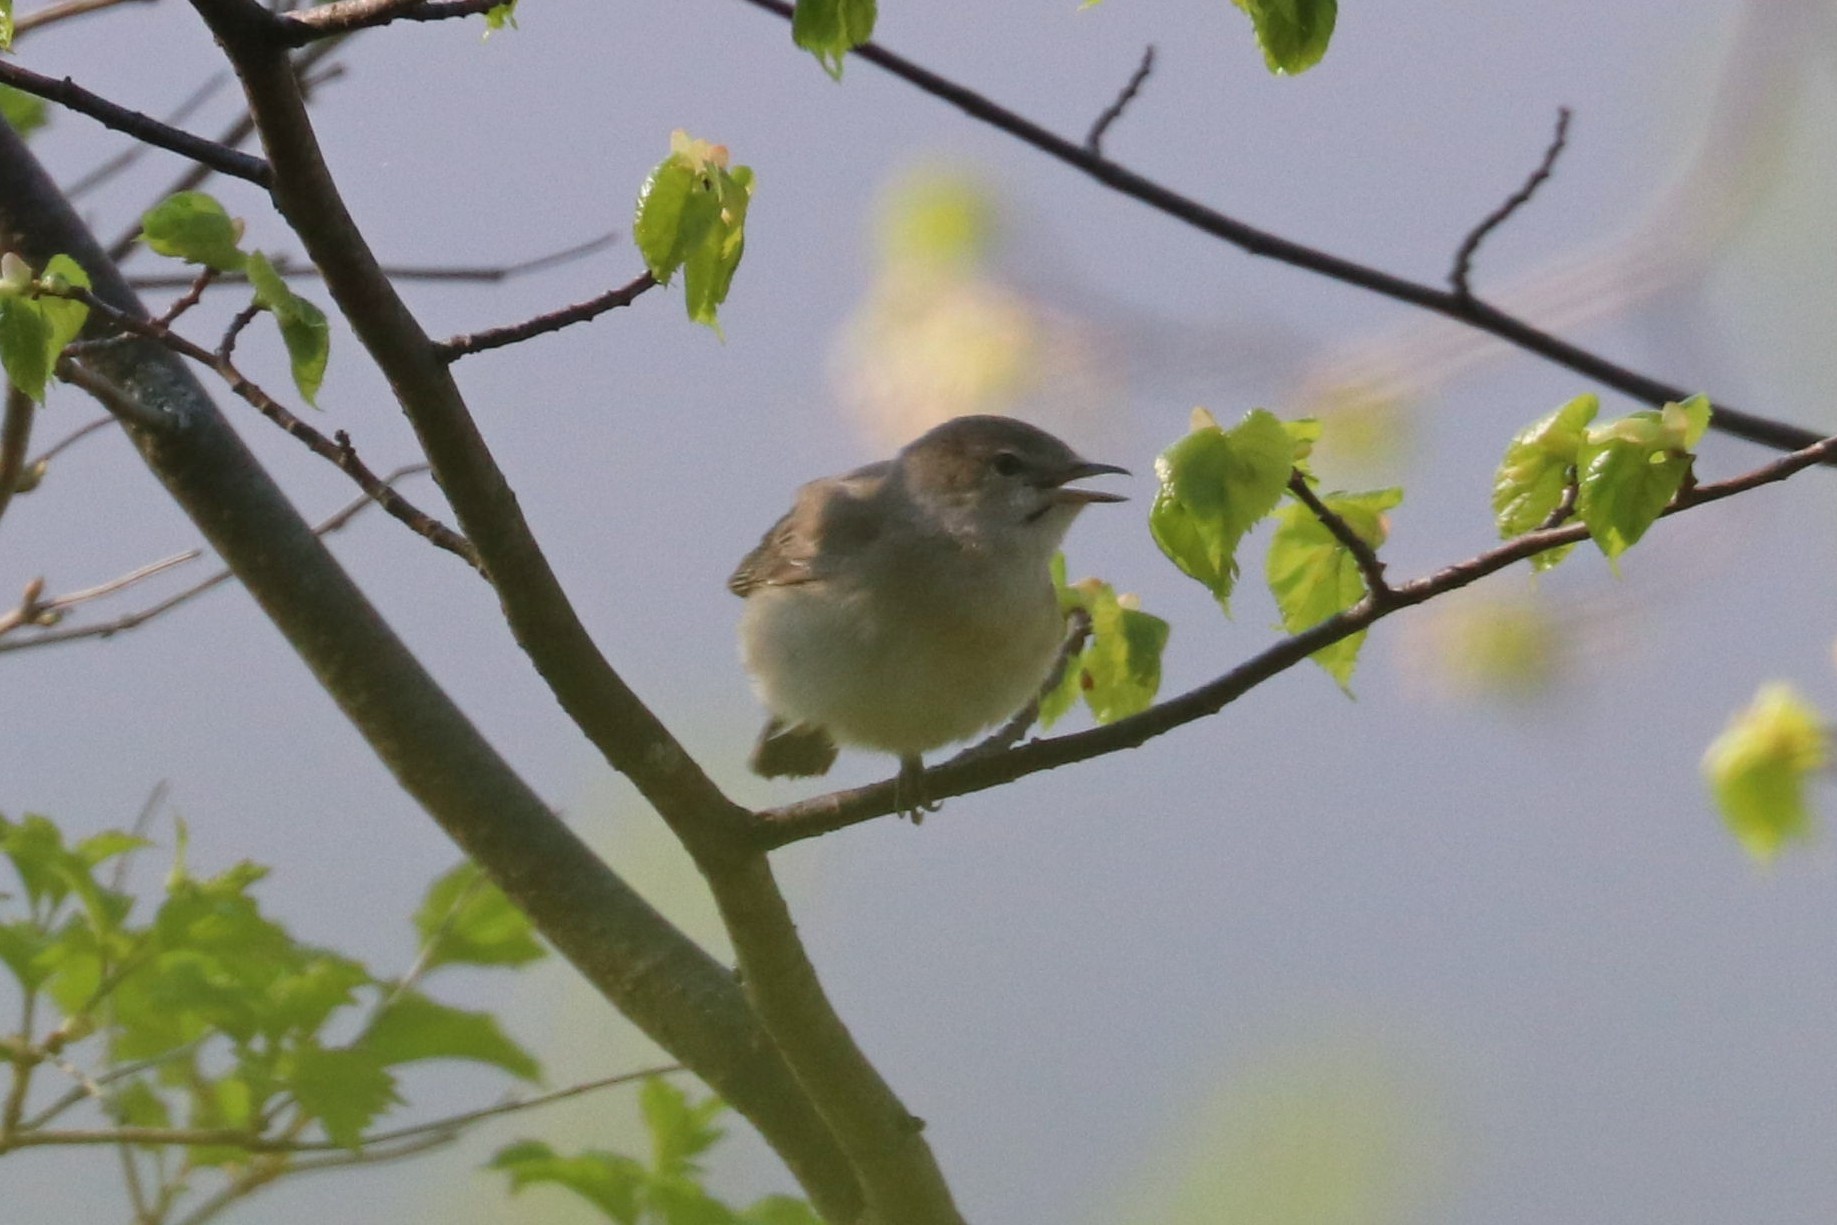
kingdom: Animalia
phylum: Chordata
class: Aves
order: Passeriformes
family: Sylviidae
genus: Sylvia
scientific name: Sylvia borin
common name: Garden warbler
